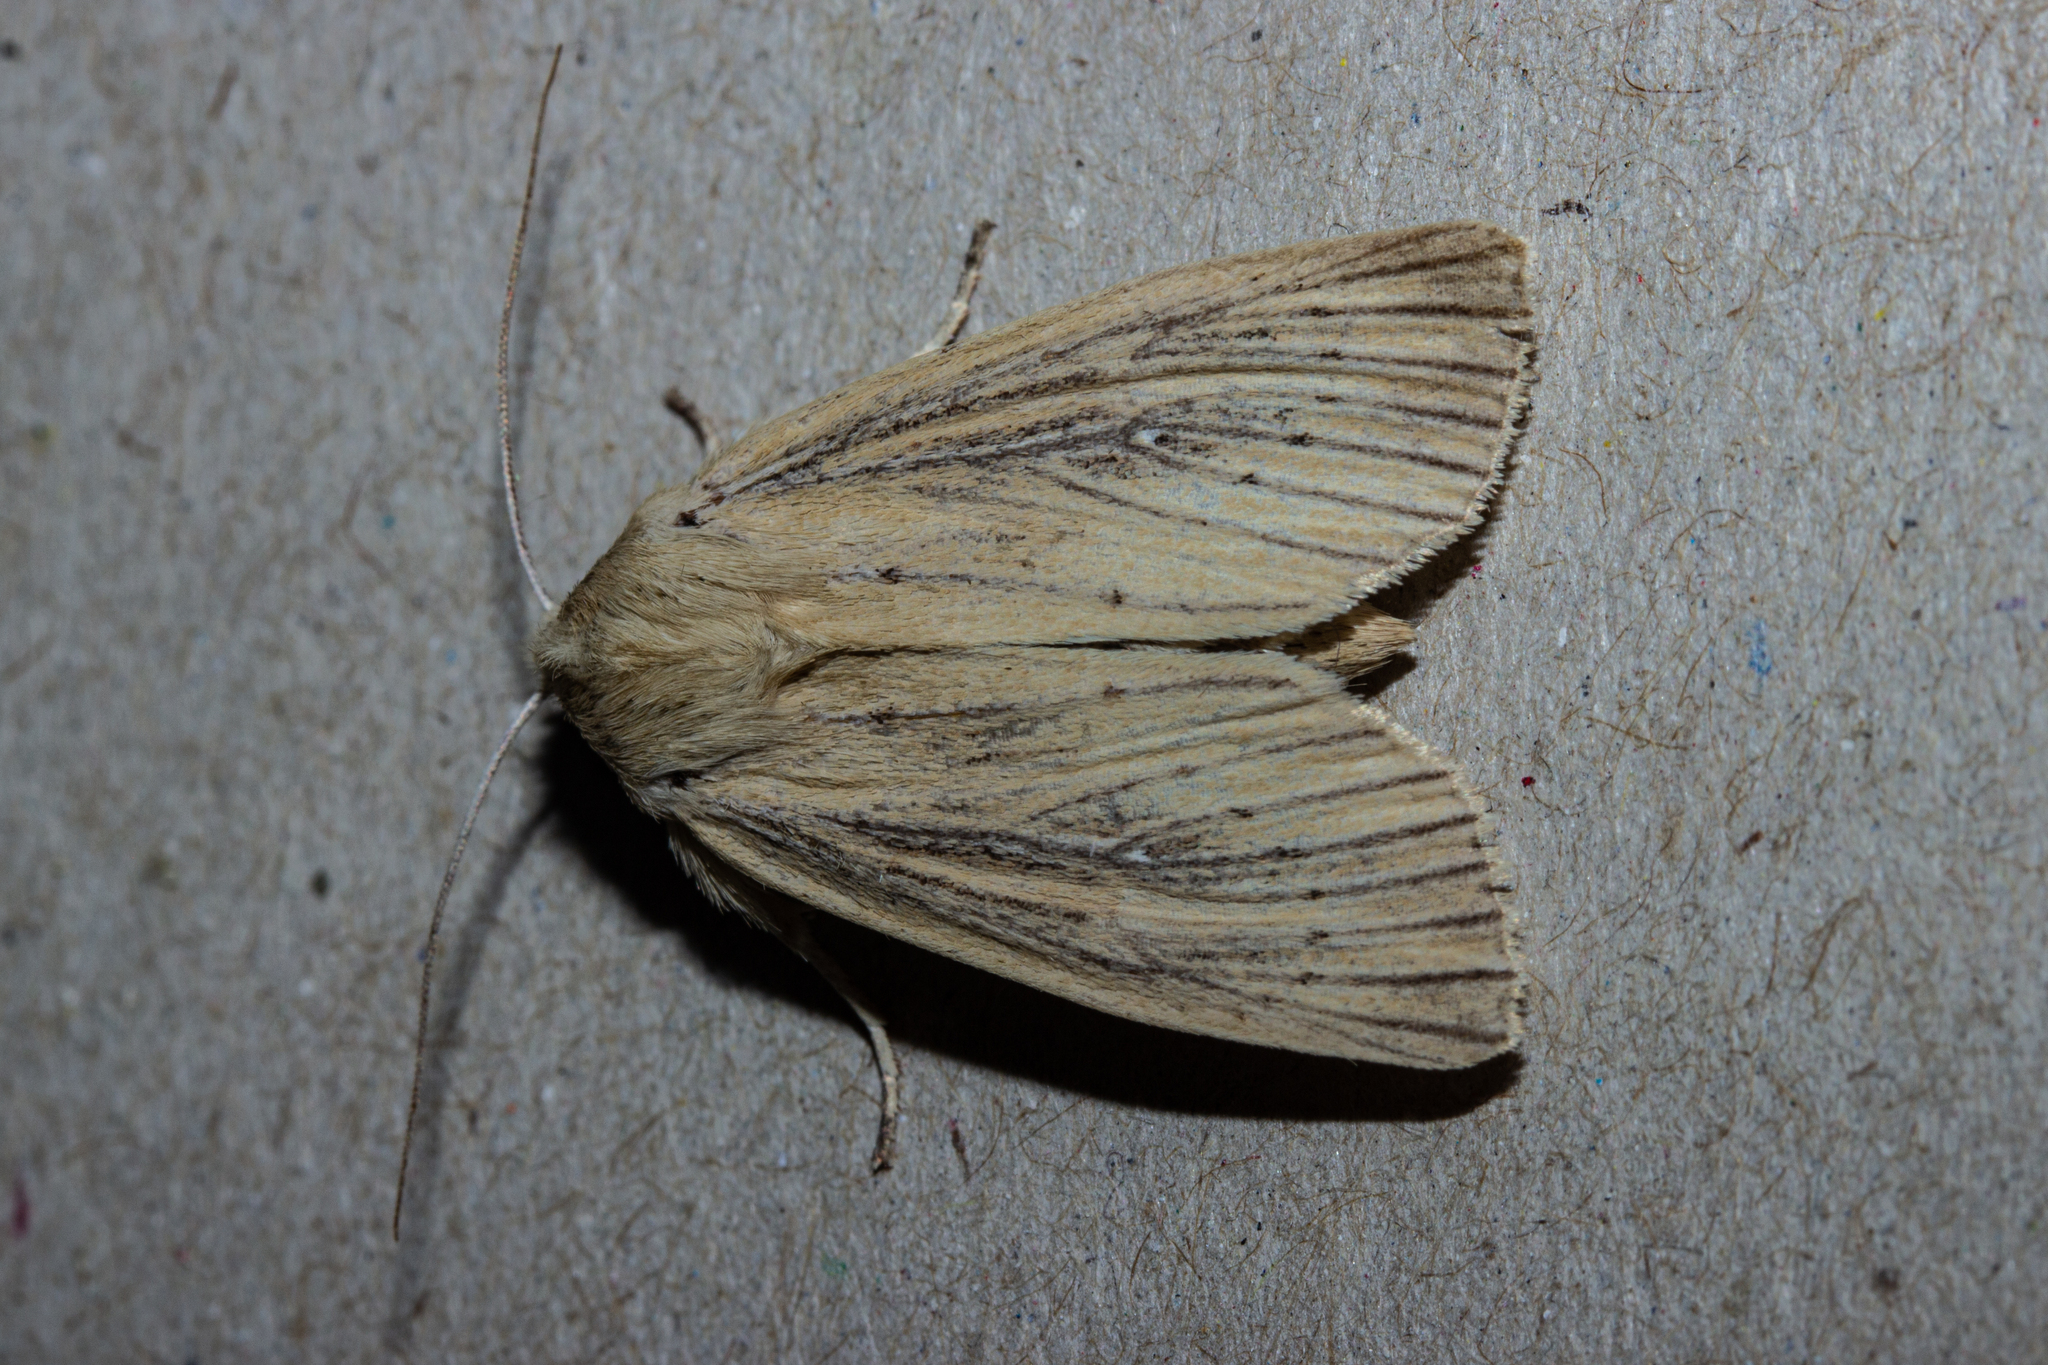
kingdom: Animalia
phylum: Arthropoda
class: Insecta
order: Lepidoptera
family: Noctuidae
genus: Ichneutica
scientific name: Ichneutica arotis
